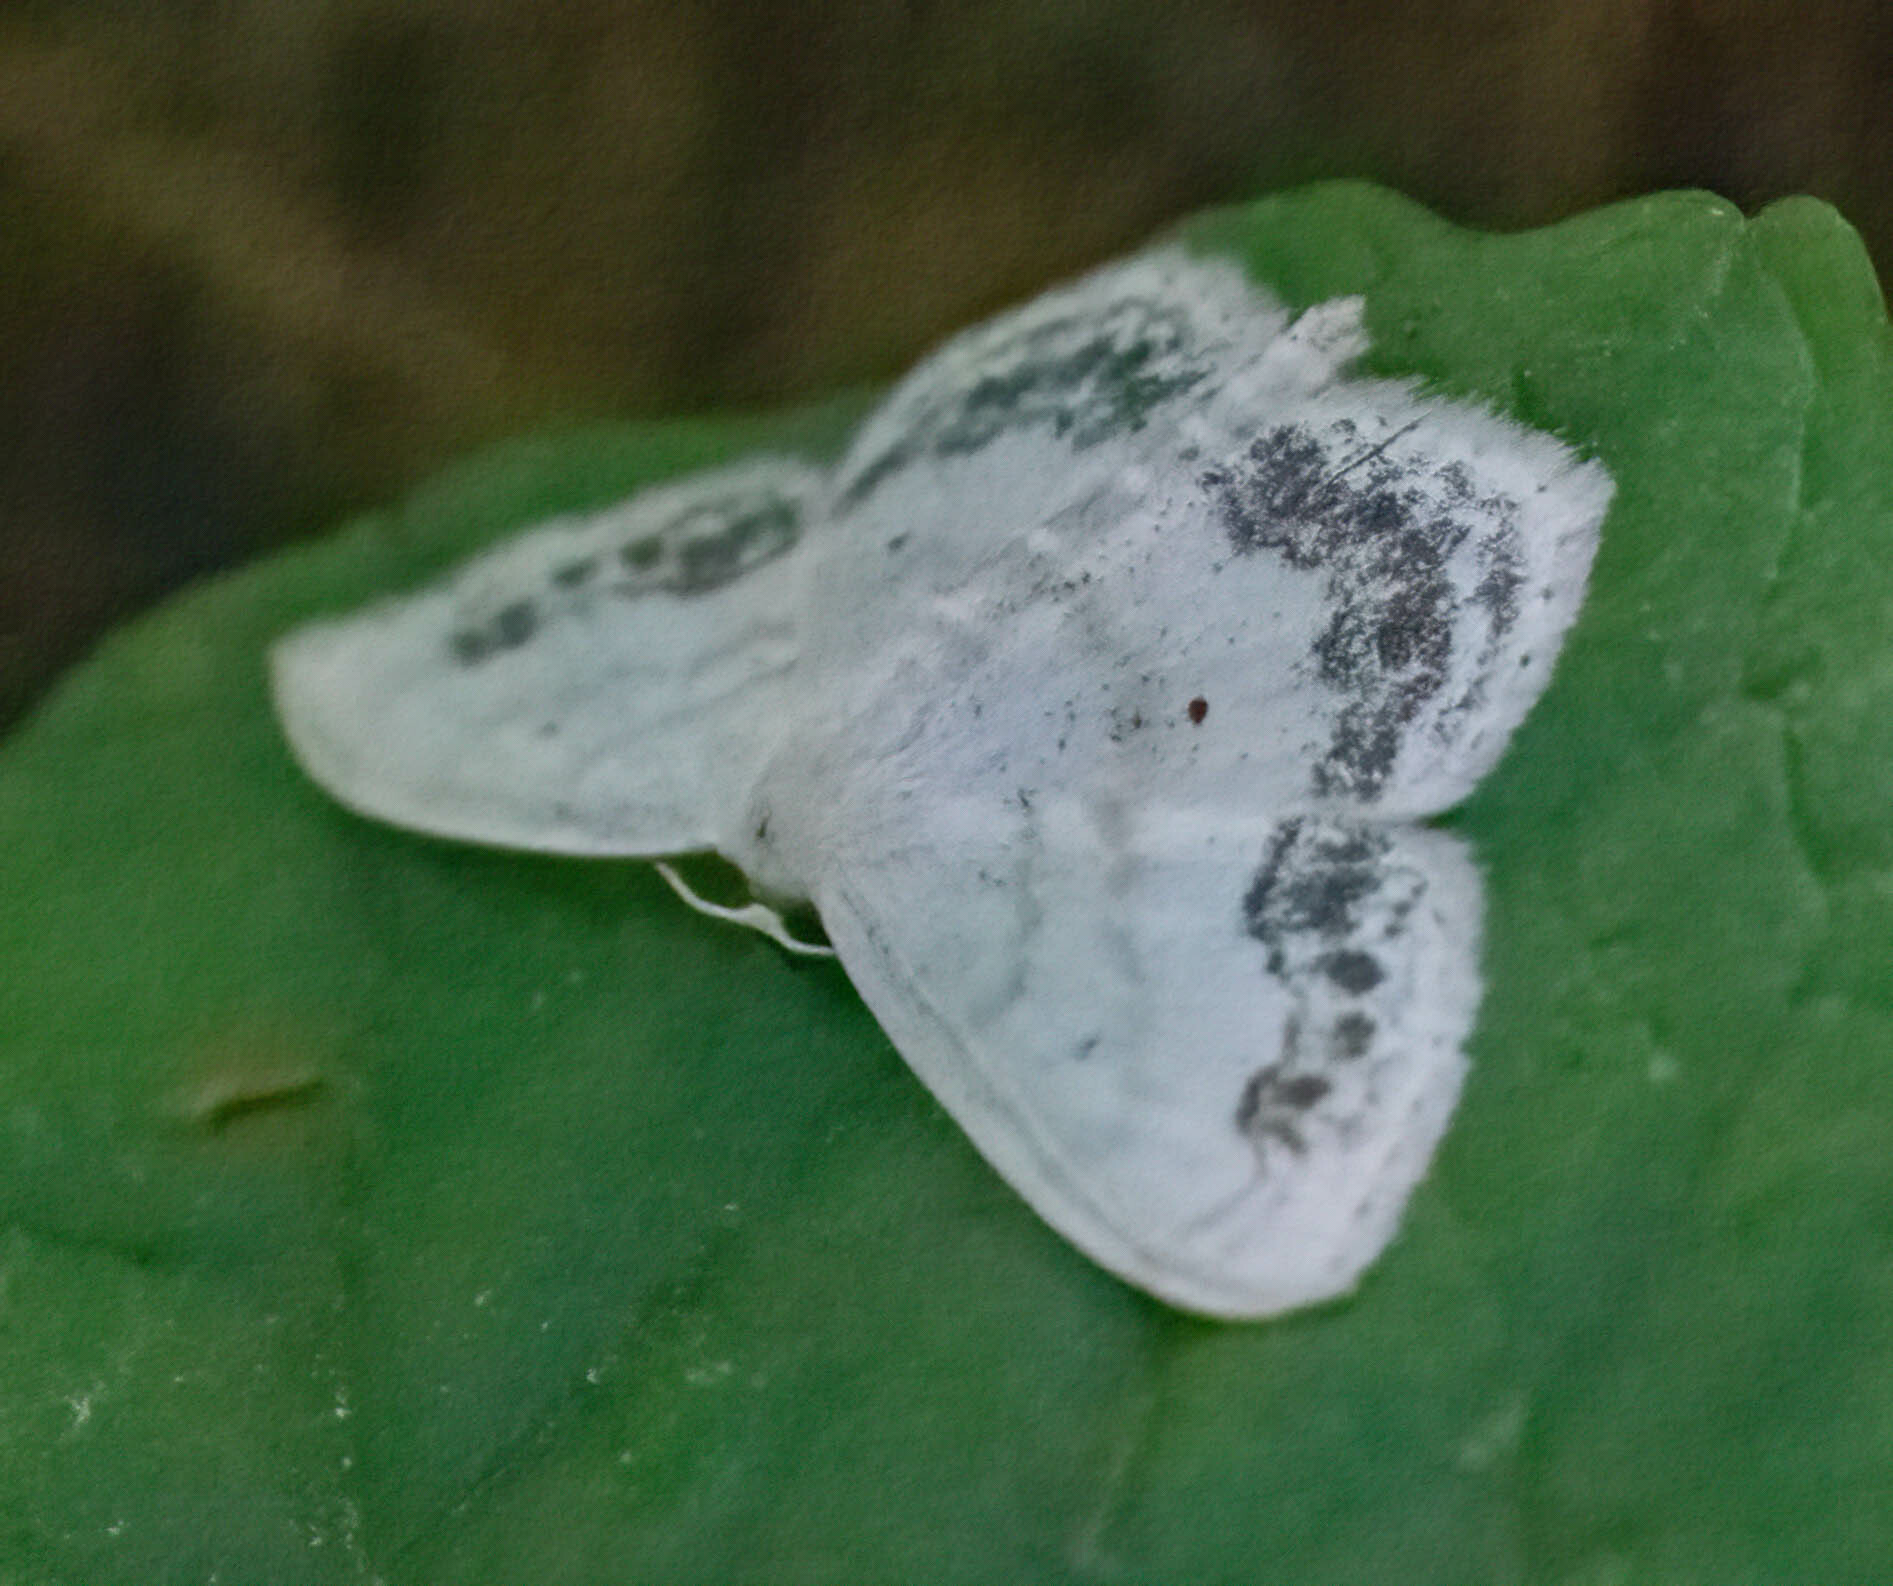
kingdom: Animalia
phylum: Arthropoda
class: Insecta
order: Lepidoptera
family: Geometridae
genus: Scopula
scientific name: Scopula limboundata
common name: Large lace border
